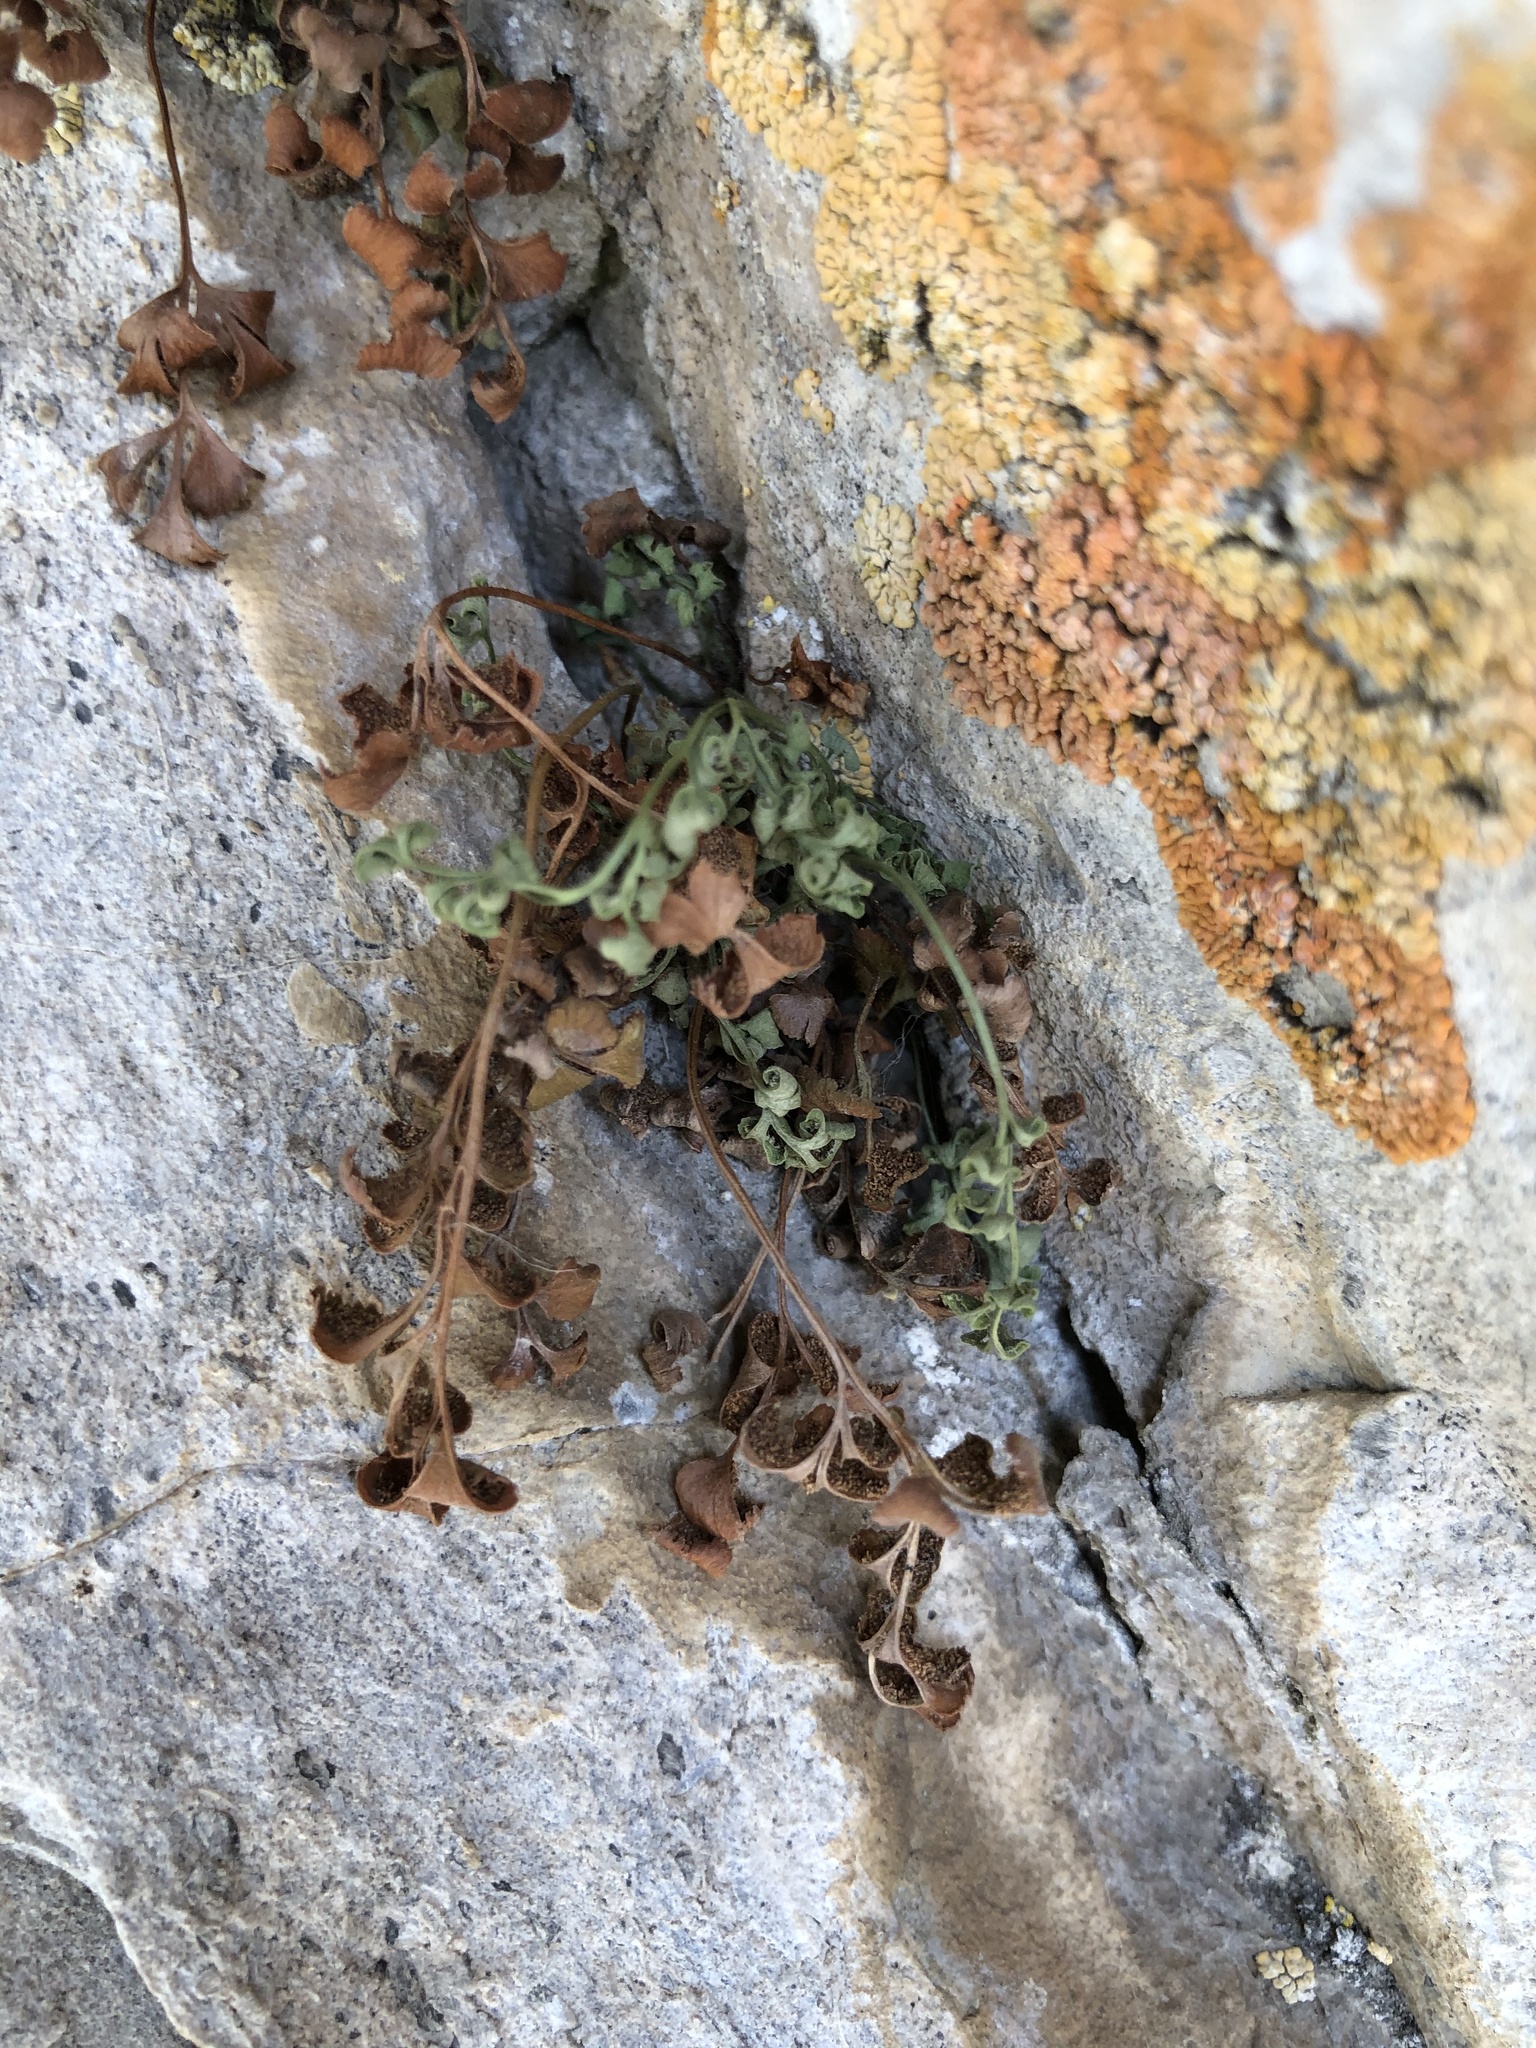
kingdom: Plantae
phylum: Tracheophyta
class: Polypodiopsida
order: Polypodiales
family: Aspleniaceae
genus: Asplenium
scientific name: Asplenium ruta-muraria
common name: Wall-rue
